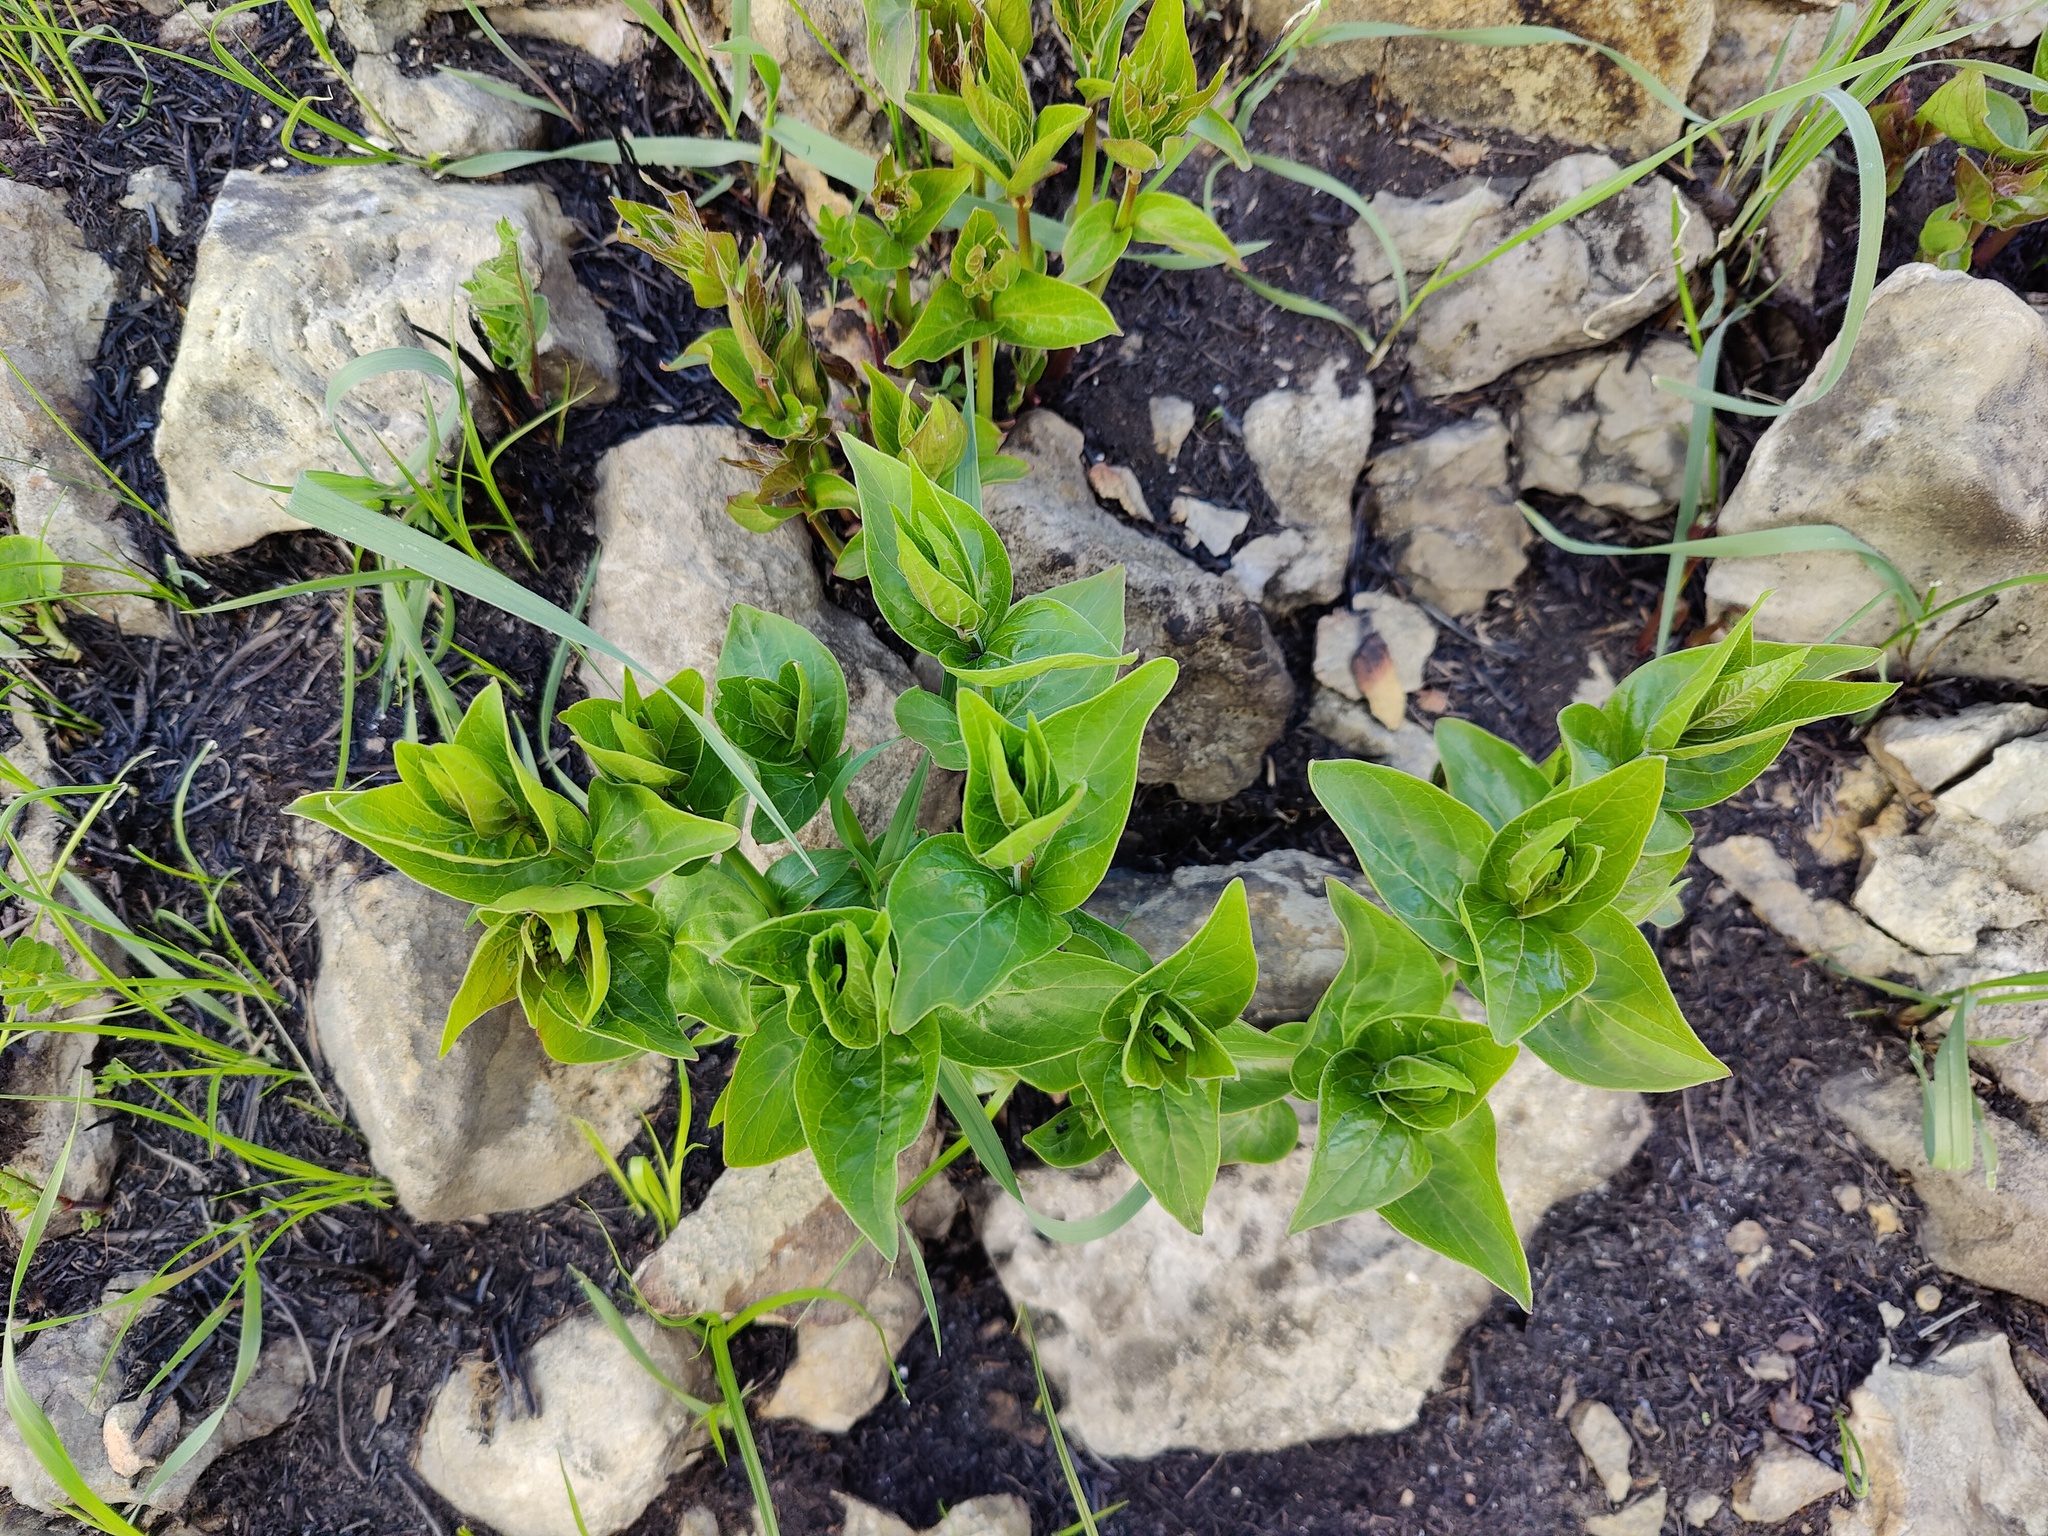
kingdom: Plantae
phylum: Tracheophyta
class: Magnoliopsida
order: Gentianales
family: Apocynaceae
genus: Vincetoxicum
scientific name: Vincetoxicum hirundinaria
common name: White swallowwort
